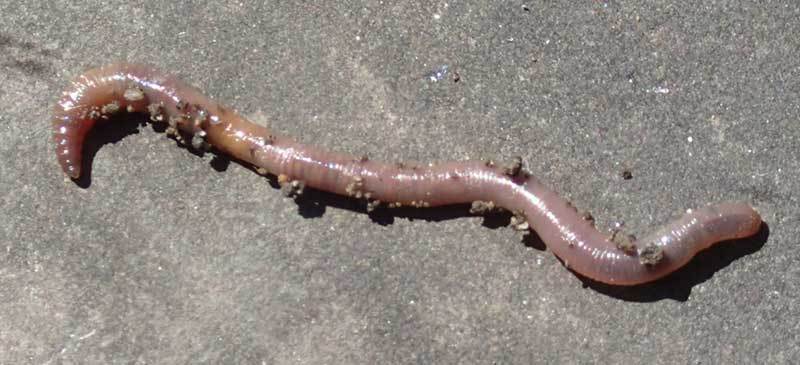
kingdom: Animalia
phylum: Annelida
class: Clitellata
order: Crassiclitellata
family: Lumbricidae
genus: Lumbricus
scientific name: Lumbricus terrestris
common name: Common earthworm
